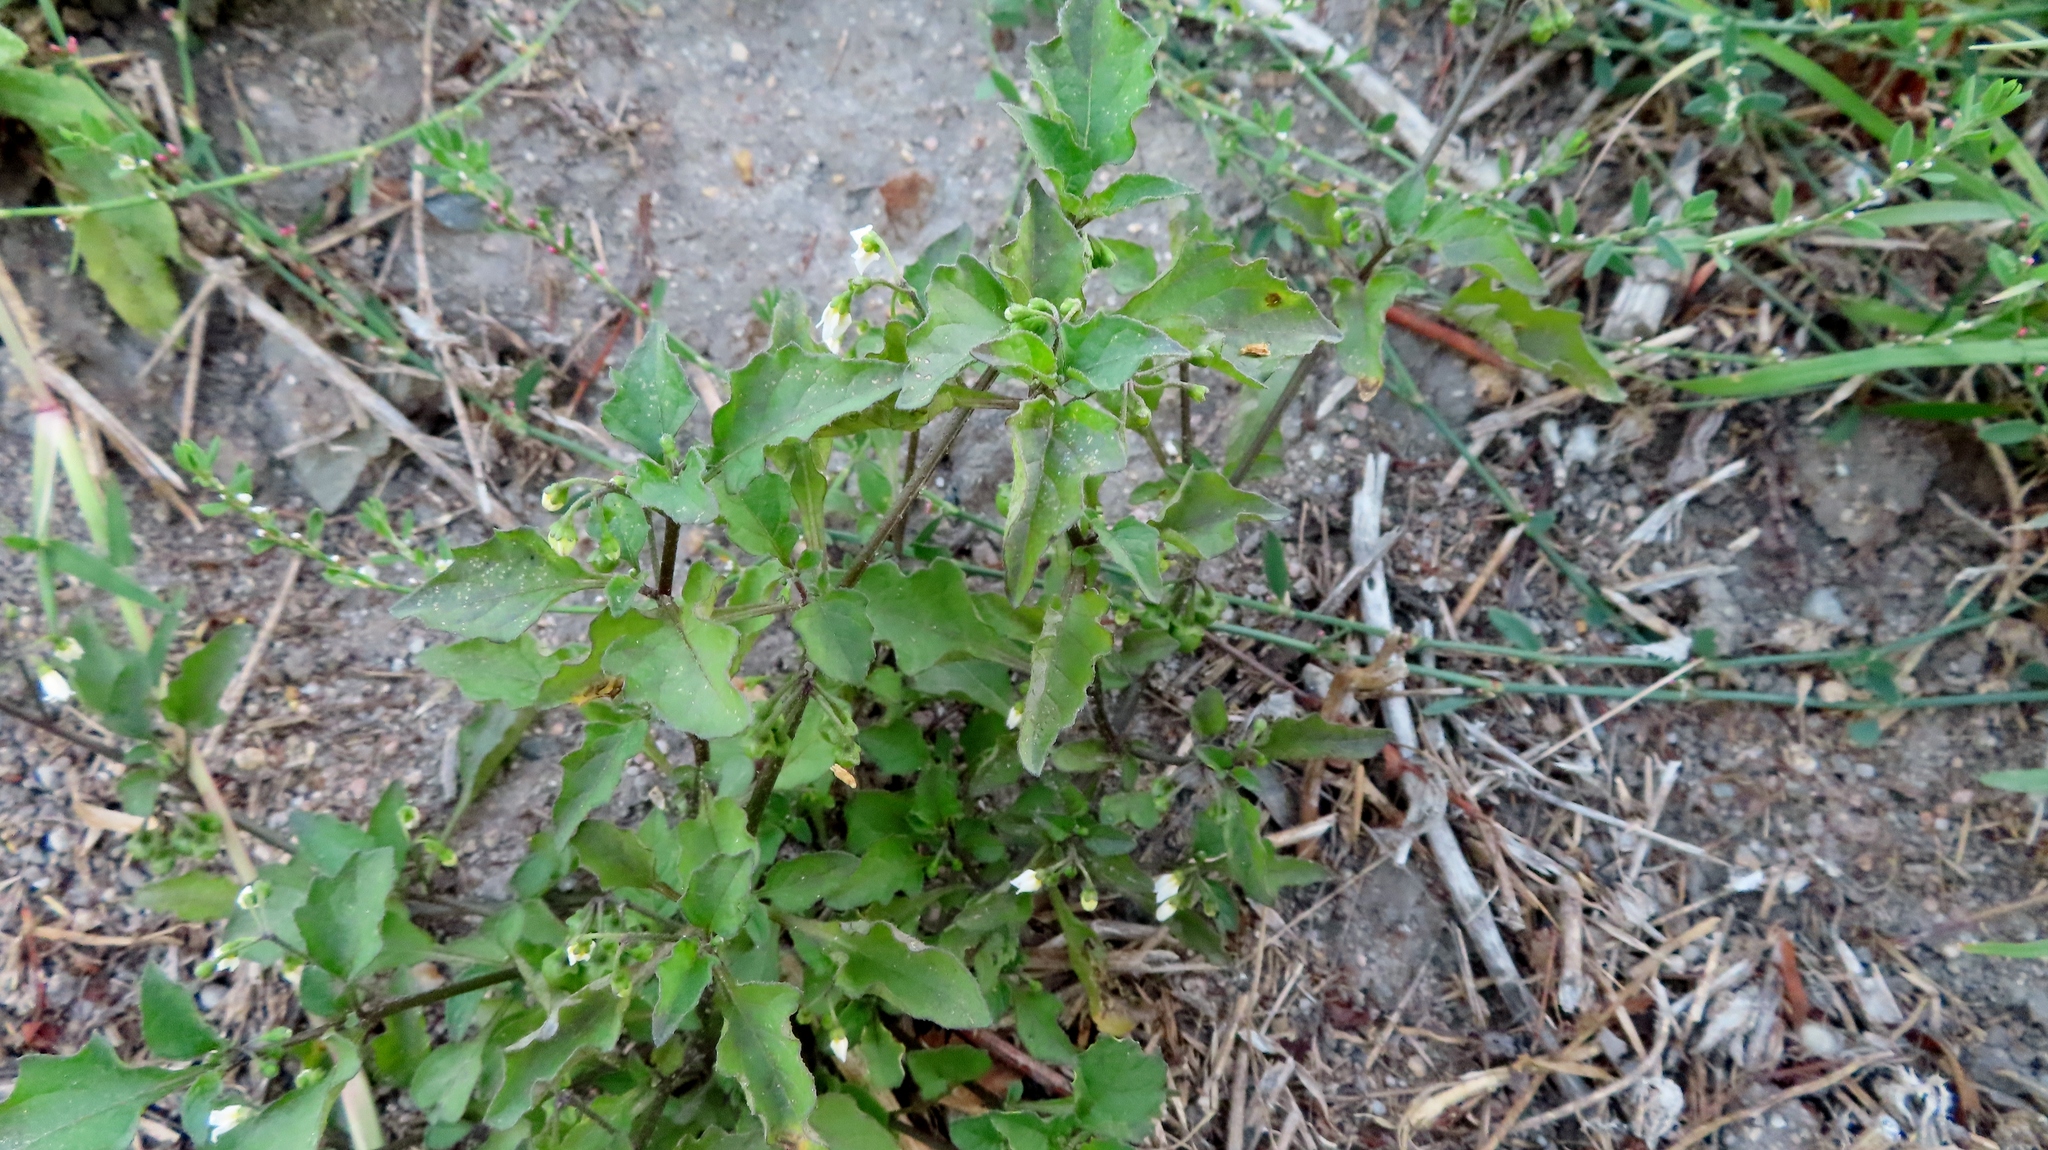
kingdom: Plantae
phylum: Tracheophyta
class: Magnoliopsida
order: Solanales
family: Solanaceae
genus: Solanum
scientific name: Solanum nigrum
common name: Black nightshade
